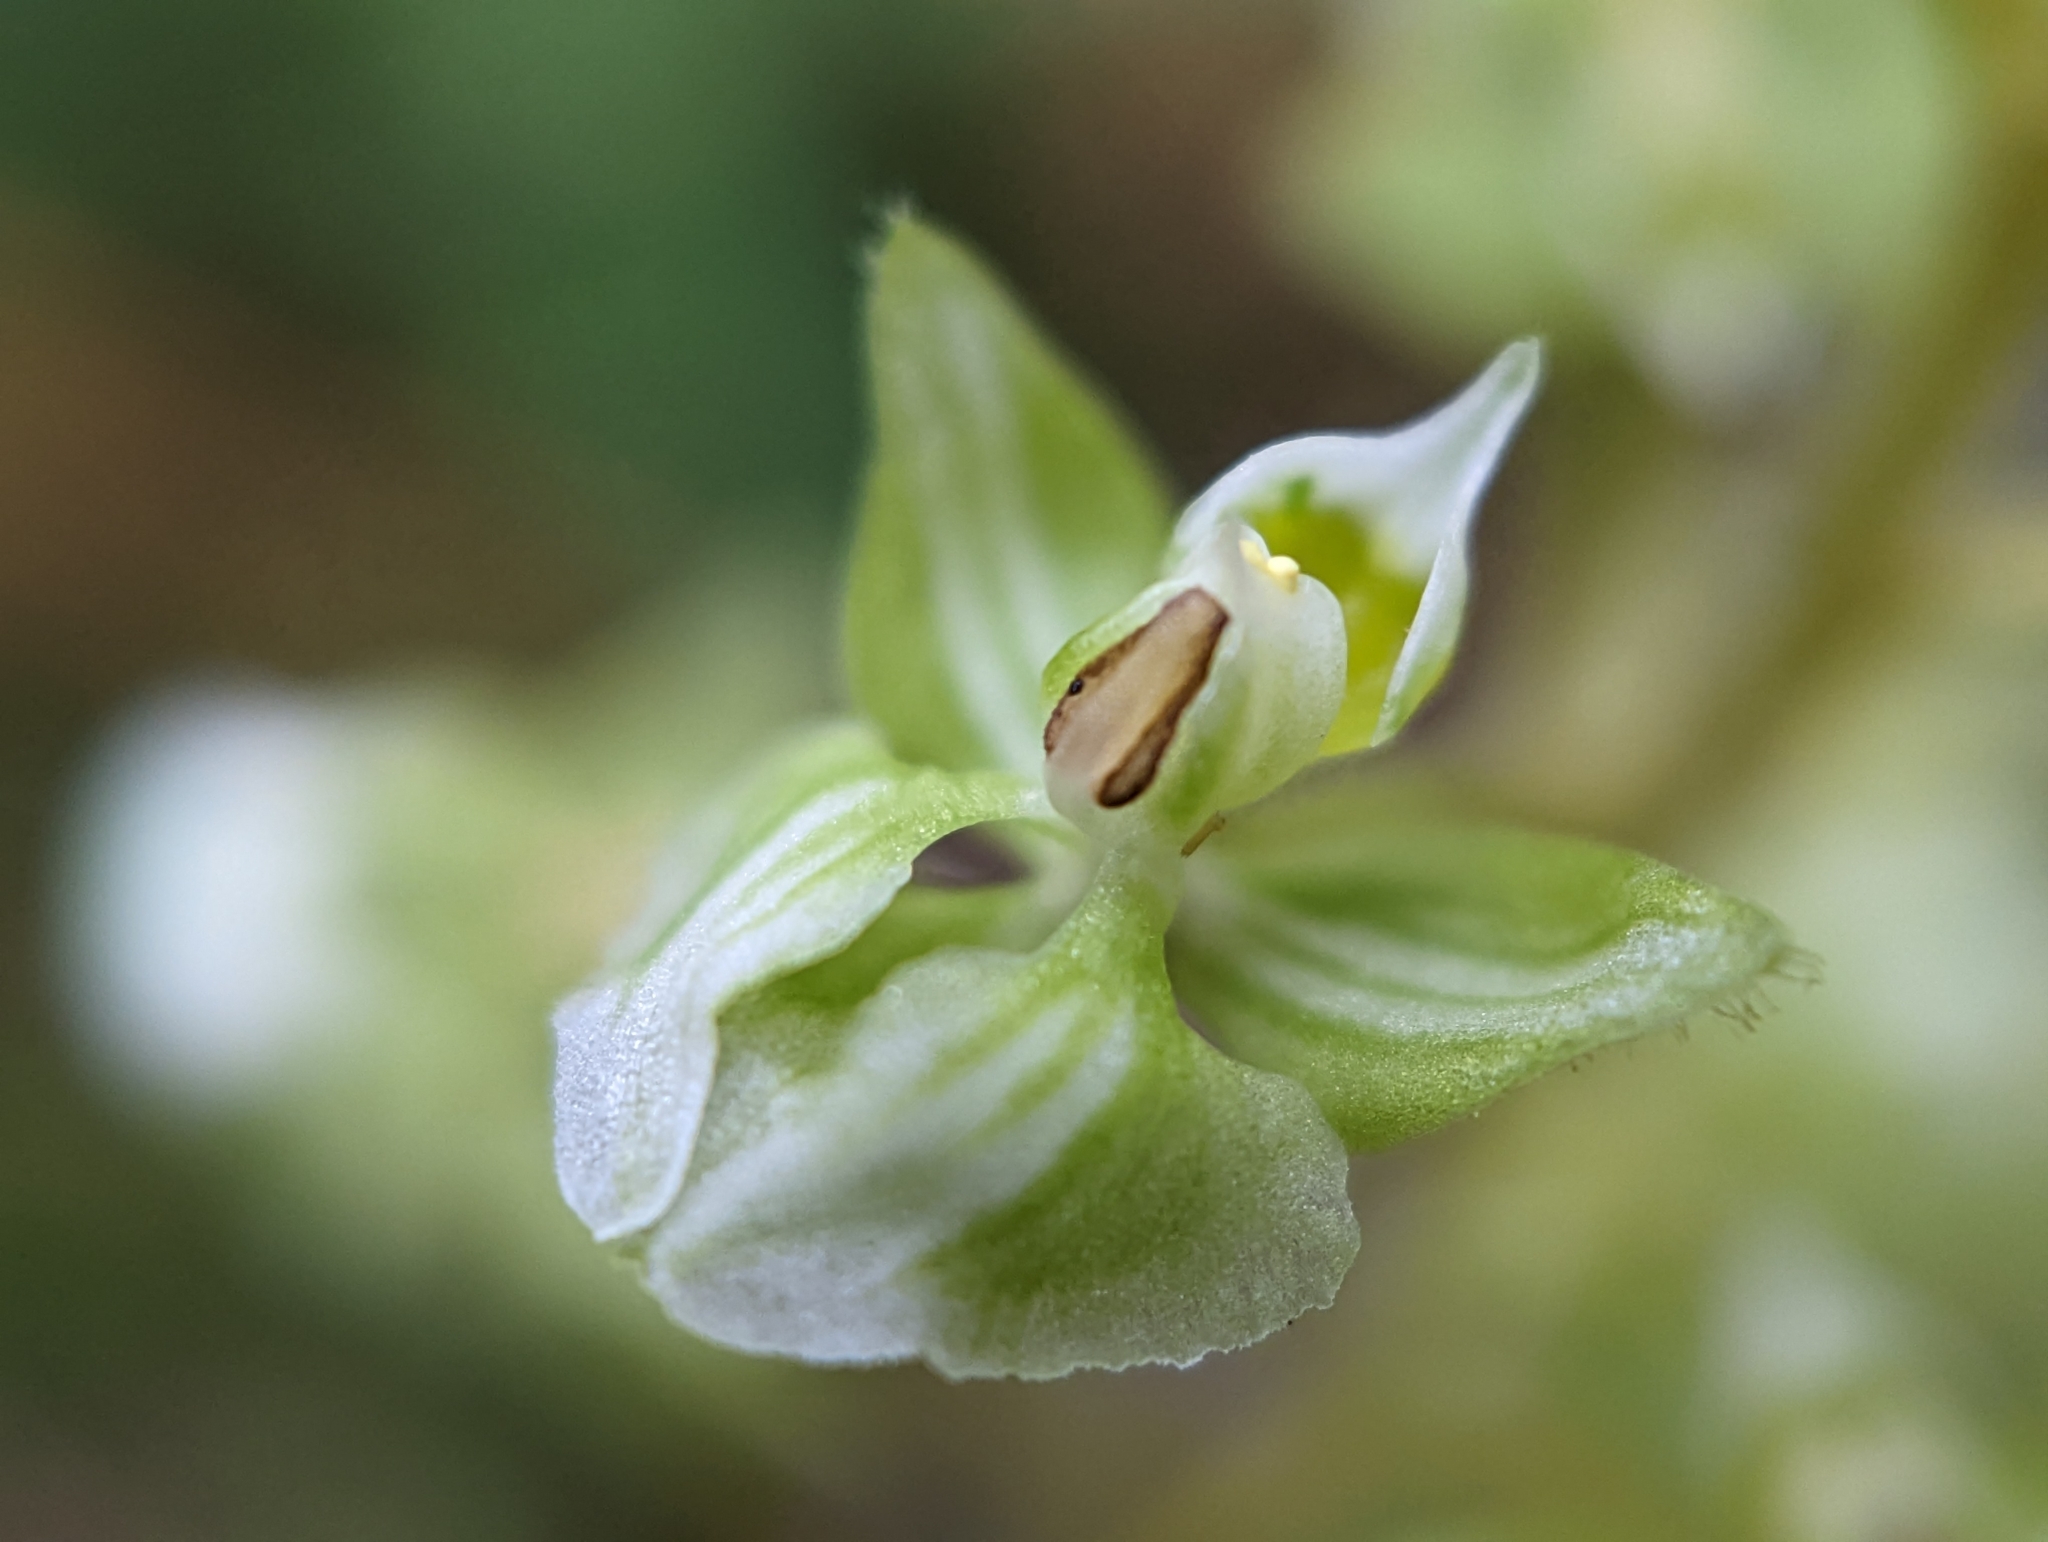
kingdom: Plantae
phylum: Tracheophyta
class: Liliopsida
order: Asparagales
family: Orchidaceae
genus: Ponthieva
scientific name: Ponthieva racemosa
